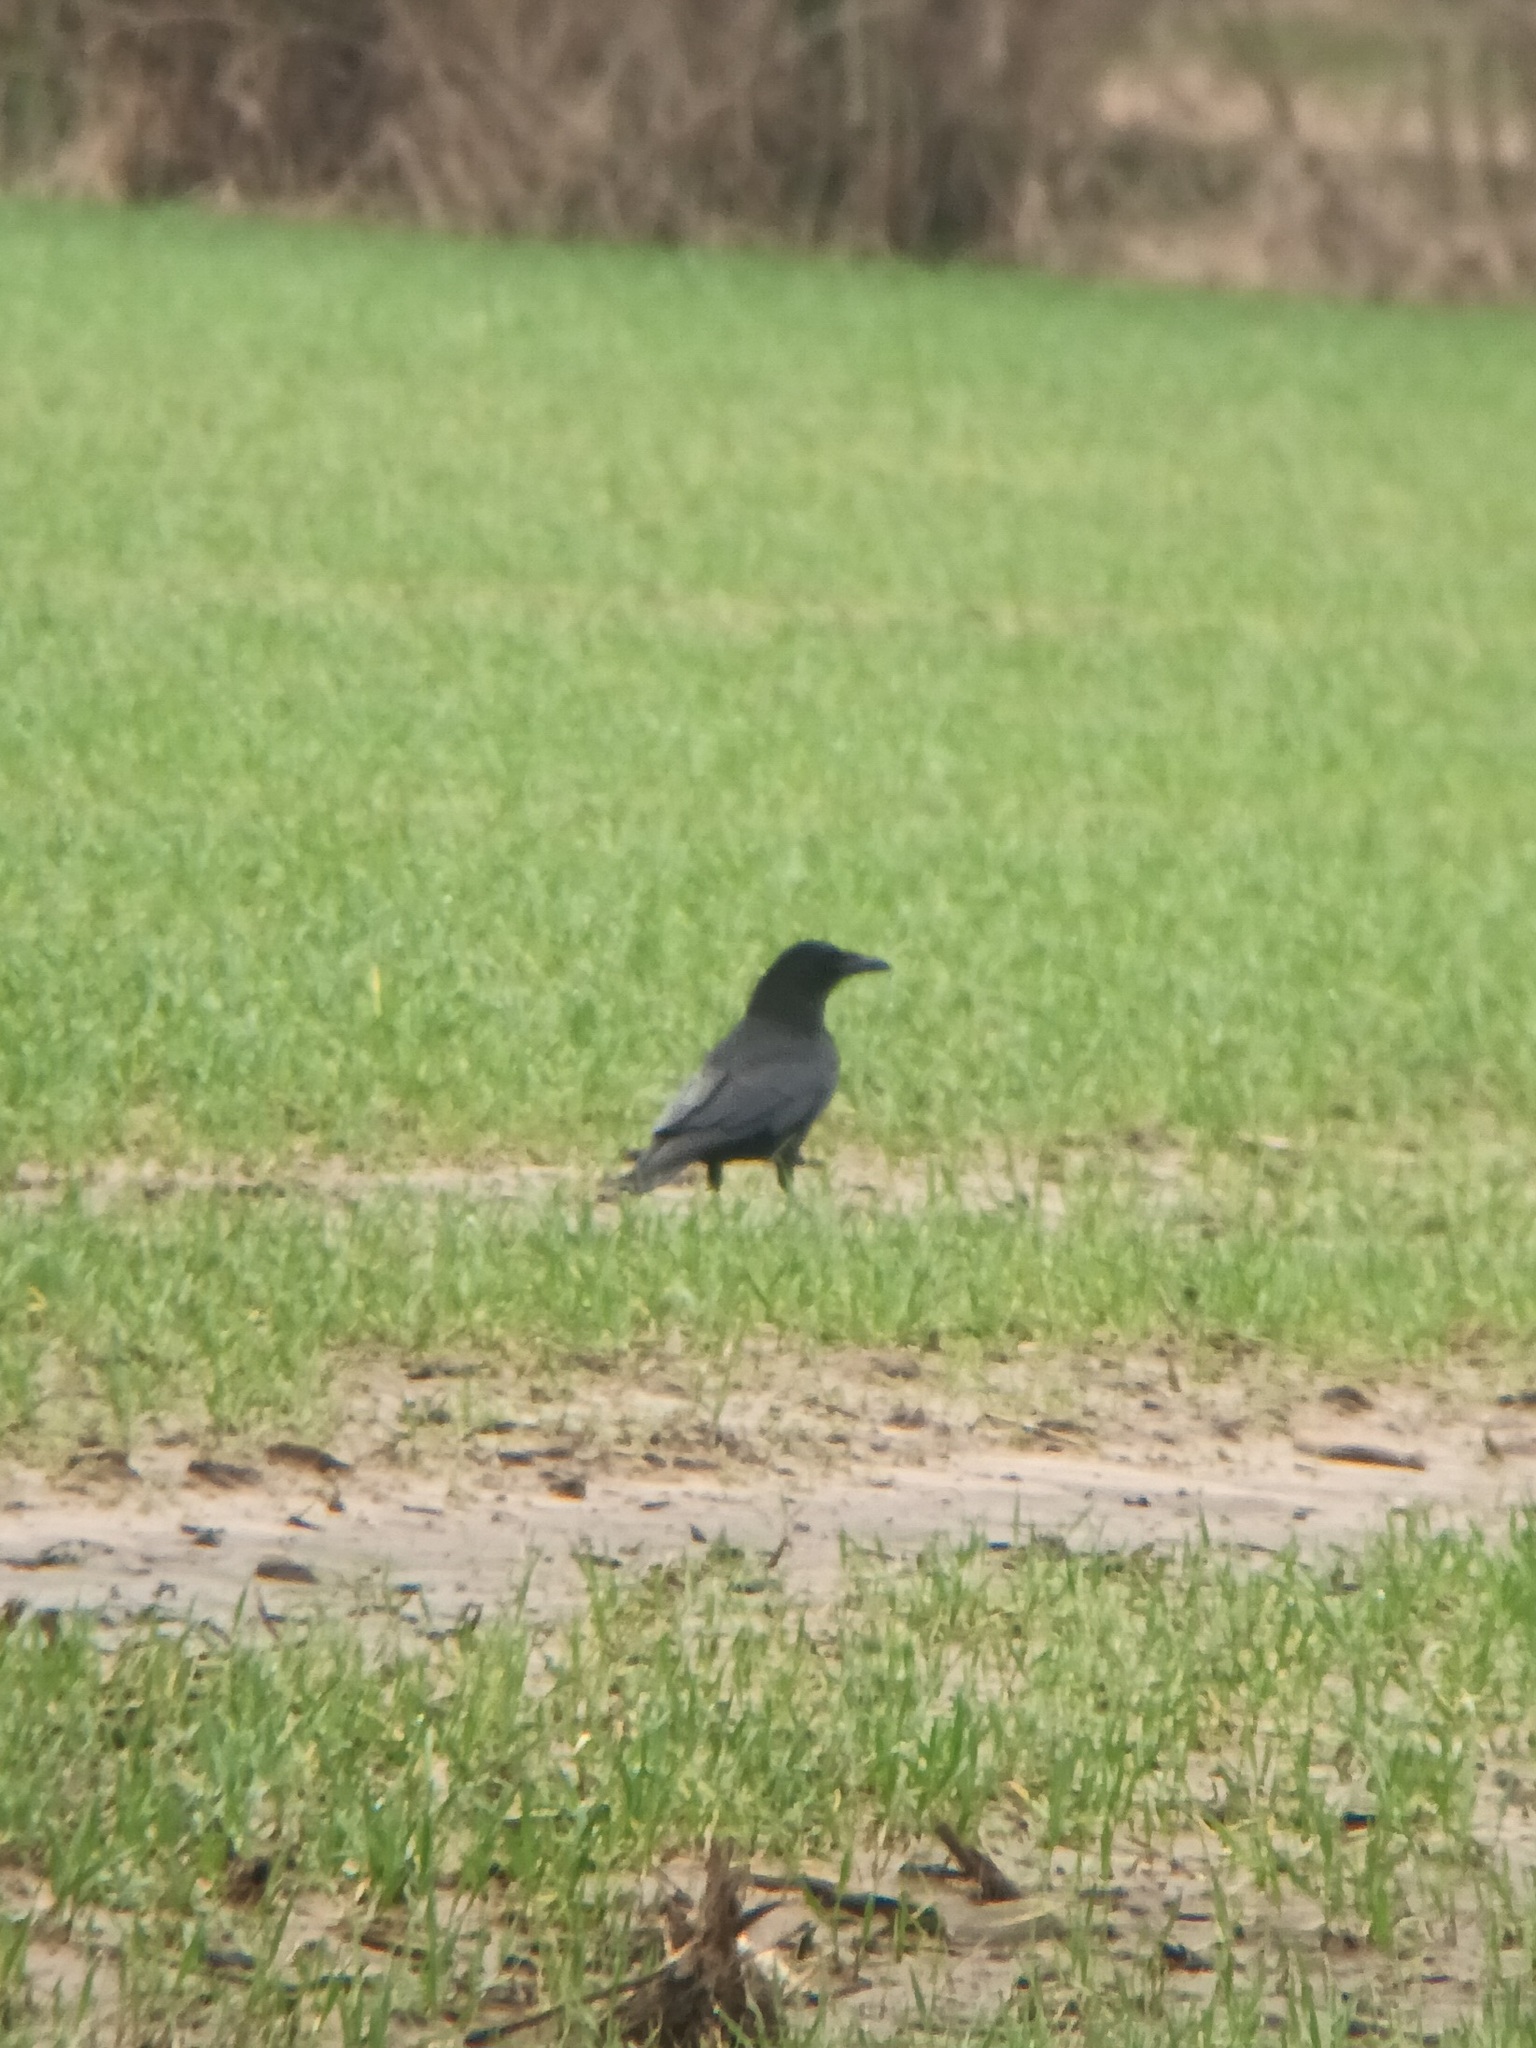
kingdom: Animalia
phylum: Chordata
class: Aves
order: Passeriformes
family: Corvidae
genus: Corvus
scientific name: Corvus corone
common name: Carrion crow
